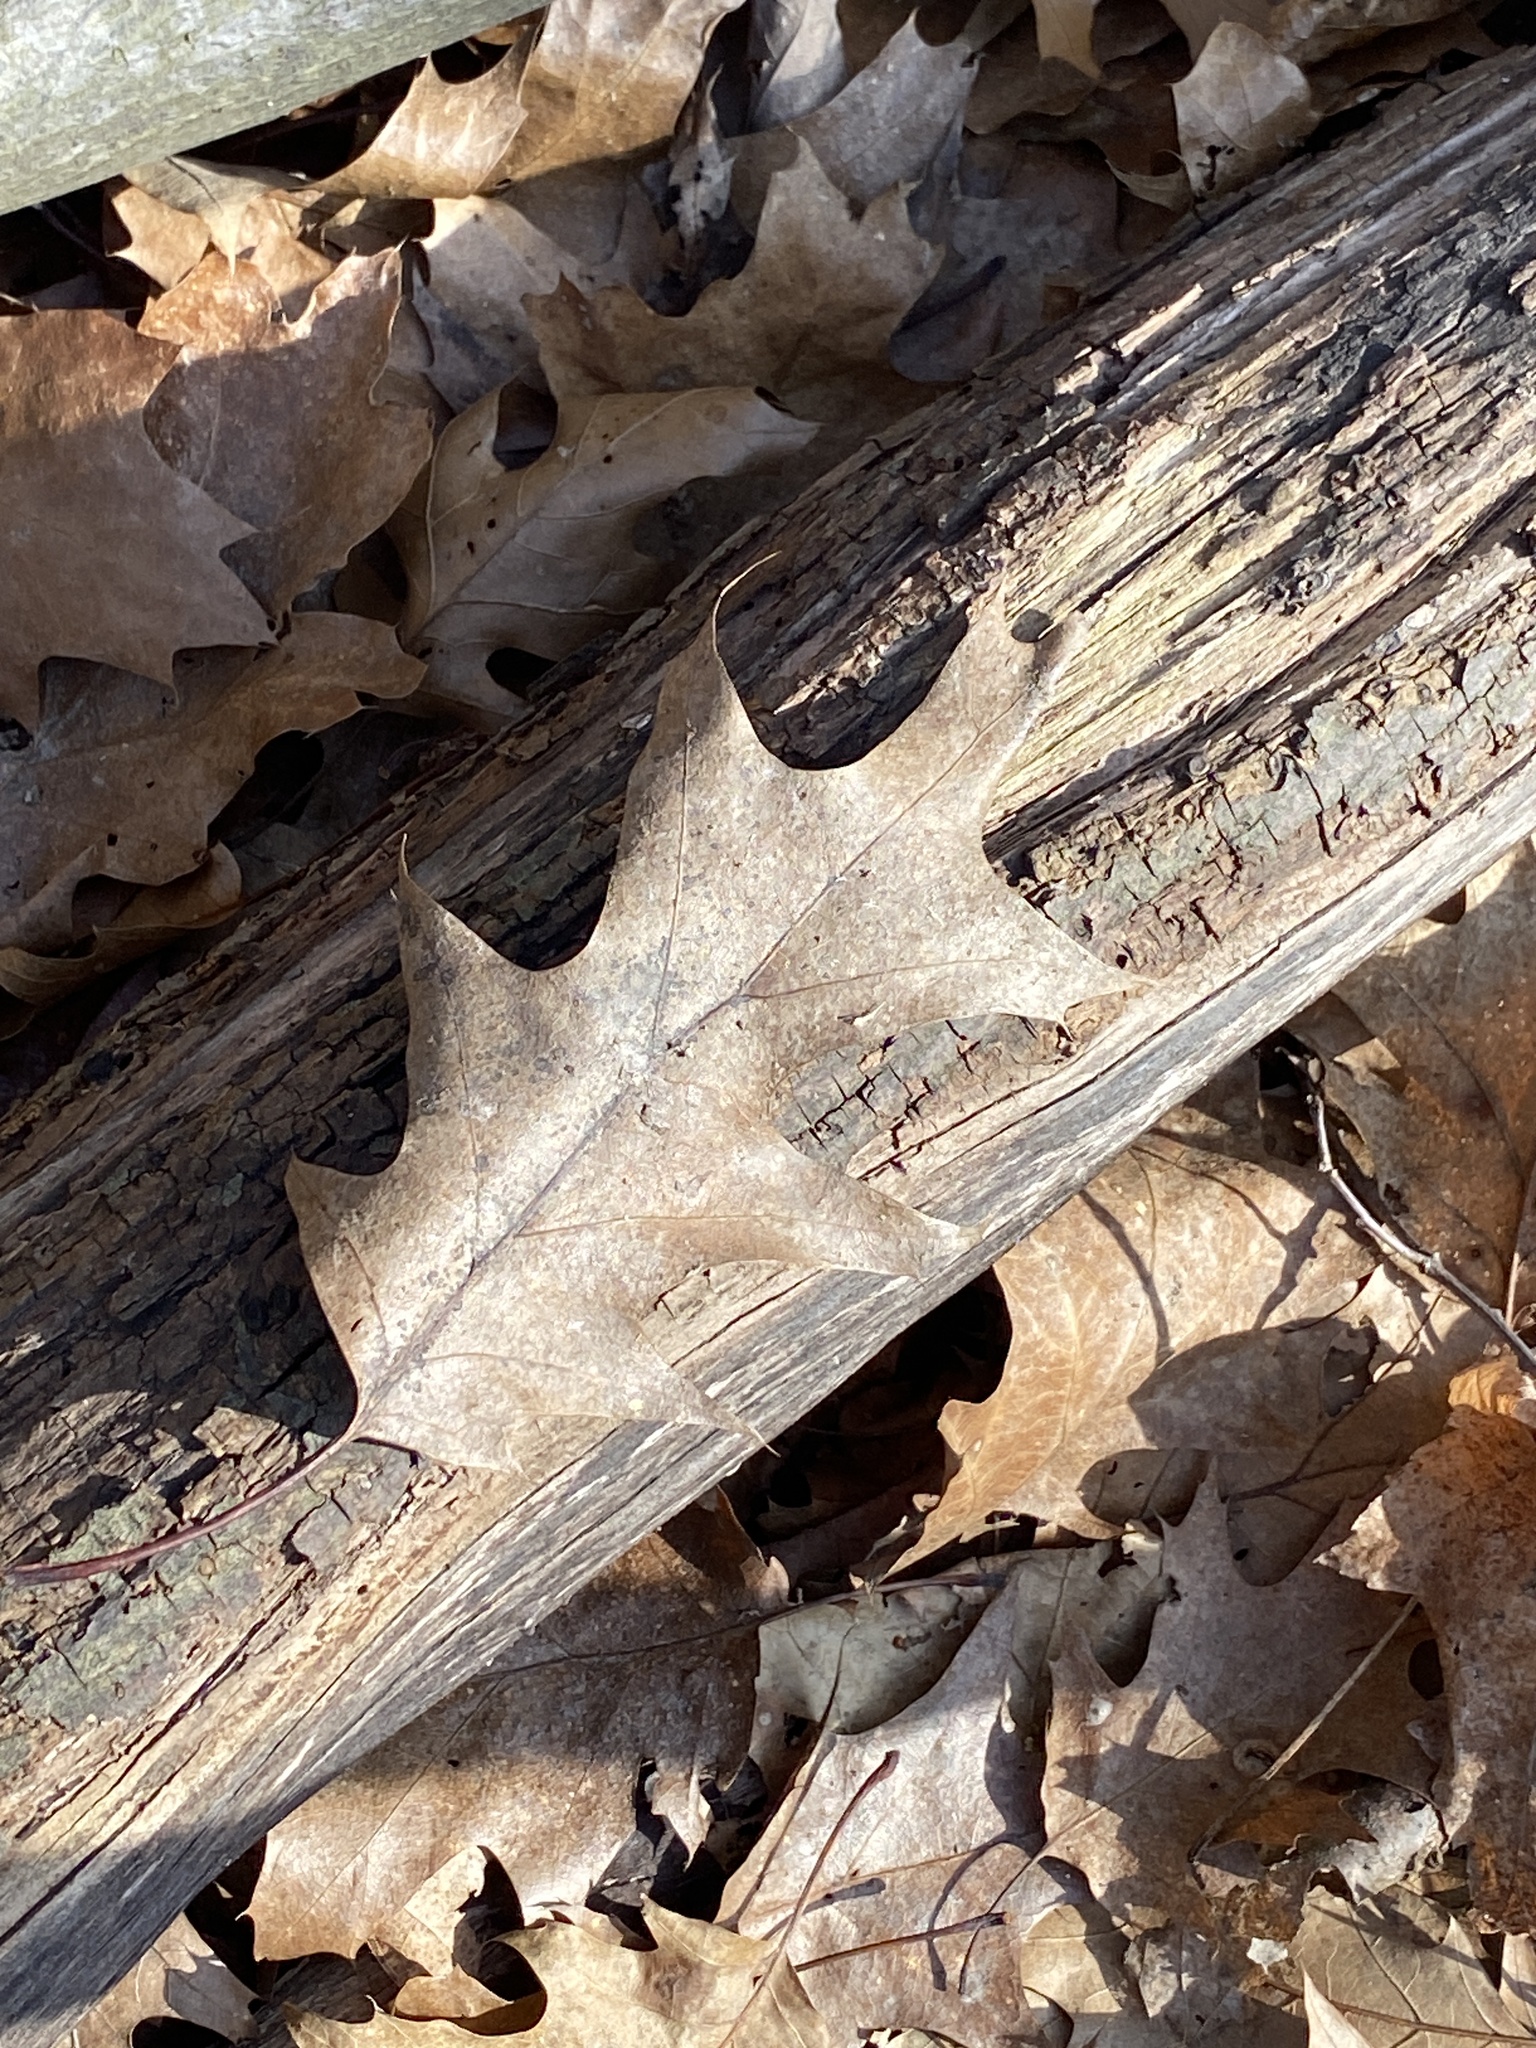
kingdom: Plantae
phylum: Tracheophyta
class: Magnoliopsida
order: Fagales
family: Fagaceae
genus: Quercus
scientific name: Quercus rubra
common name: Red oak
